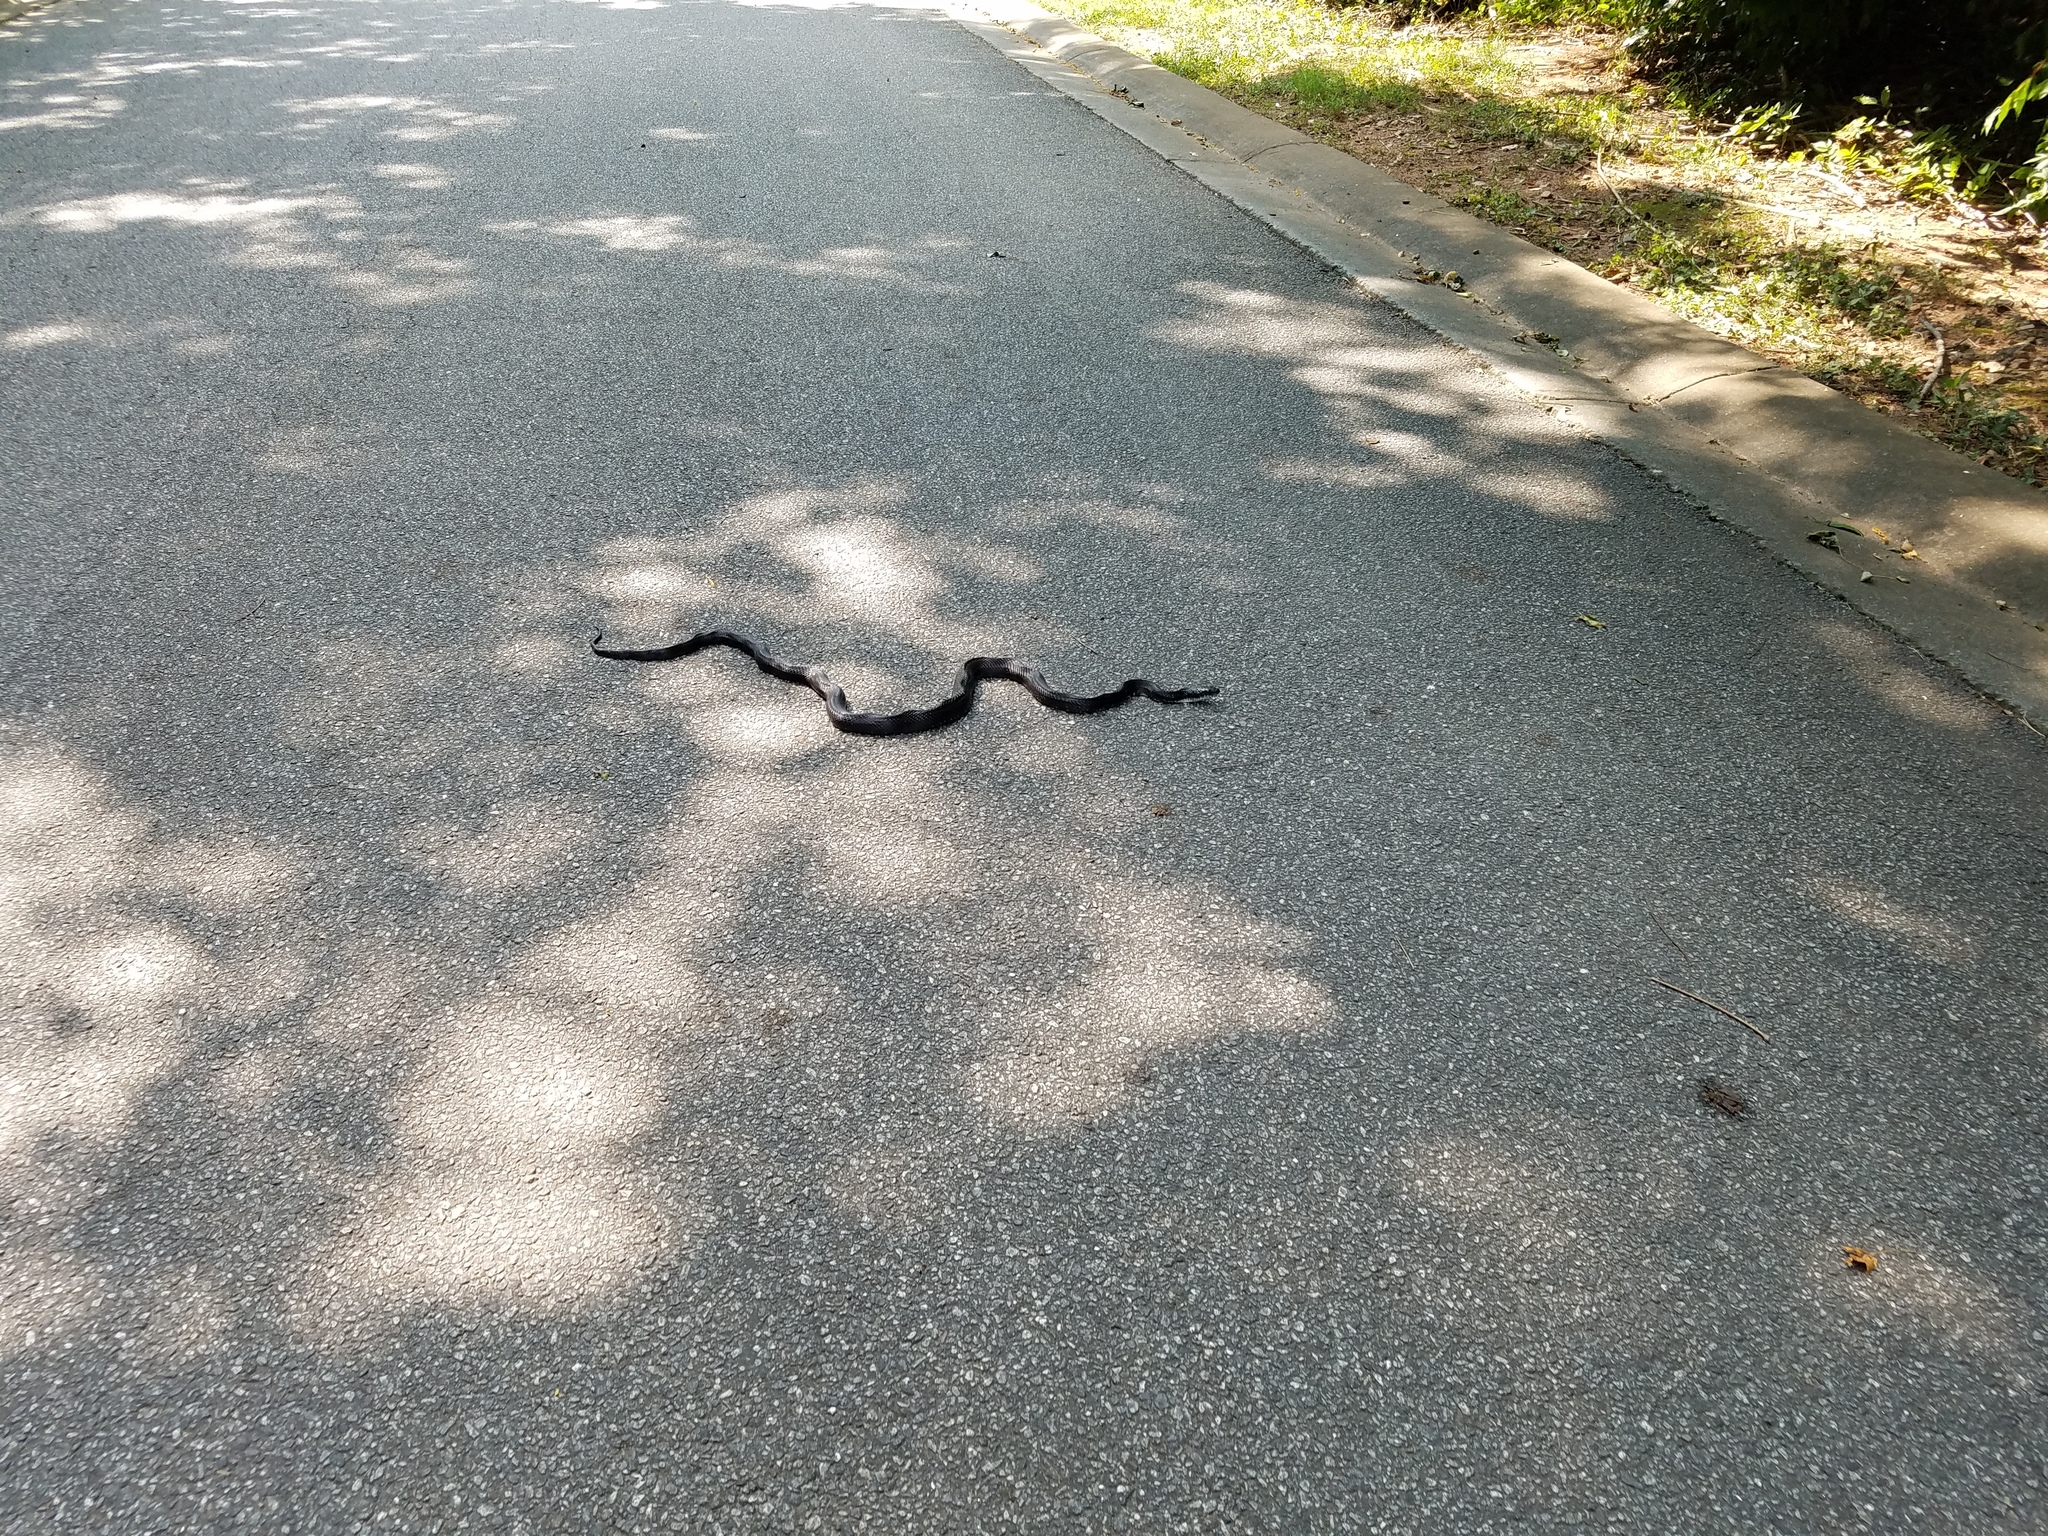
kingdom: Animalia
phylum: Chordata
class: Squamata
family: Colubridae
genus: Pantherophis
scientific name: Pantherophis
